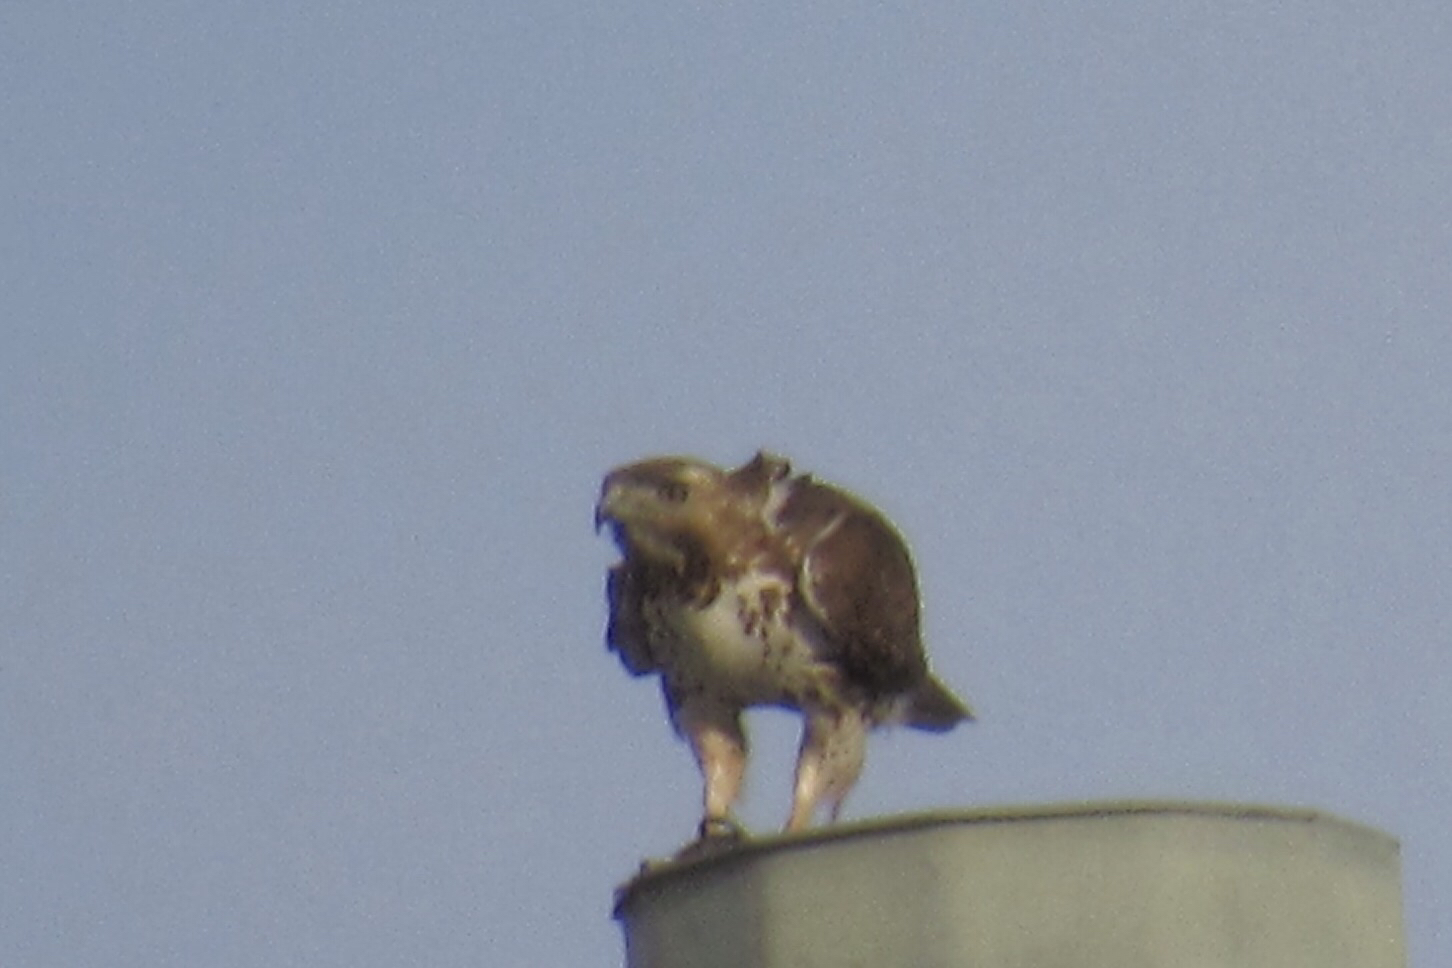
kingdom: Animalia
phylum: Chordata
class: Aves
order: Accipitriformes
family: Accipitridae
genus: Buteo
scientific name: Buteo jamaicensis
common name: Red-tailed hawk
